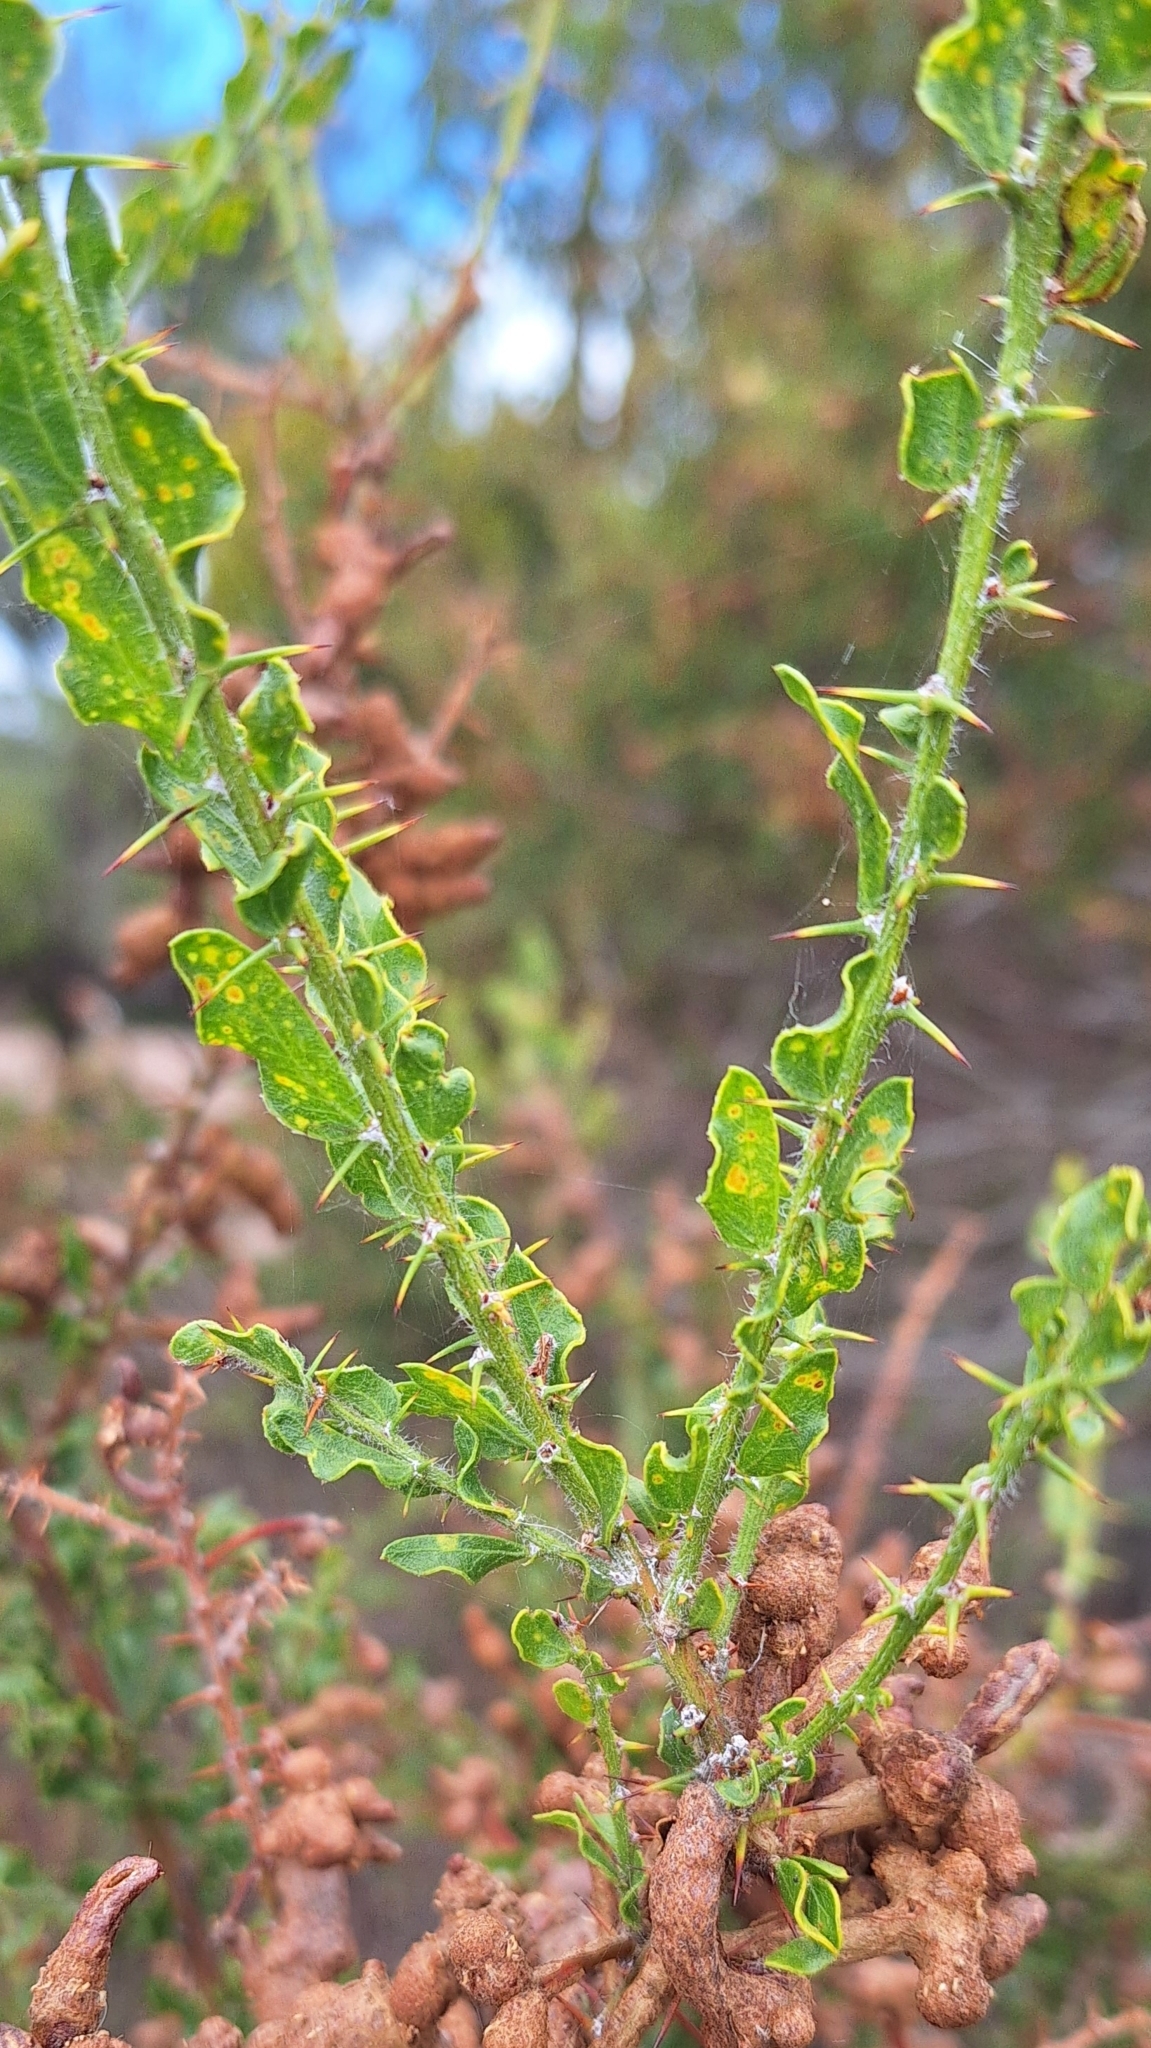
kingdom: Plantae
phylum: Tracheophyta
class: Magnoliopsida
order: Fabales
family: Fabaceae
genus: Acacia
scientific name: Acacia paradoxa
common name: Paradox acacia
